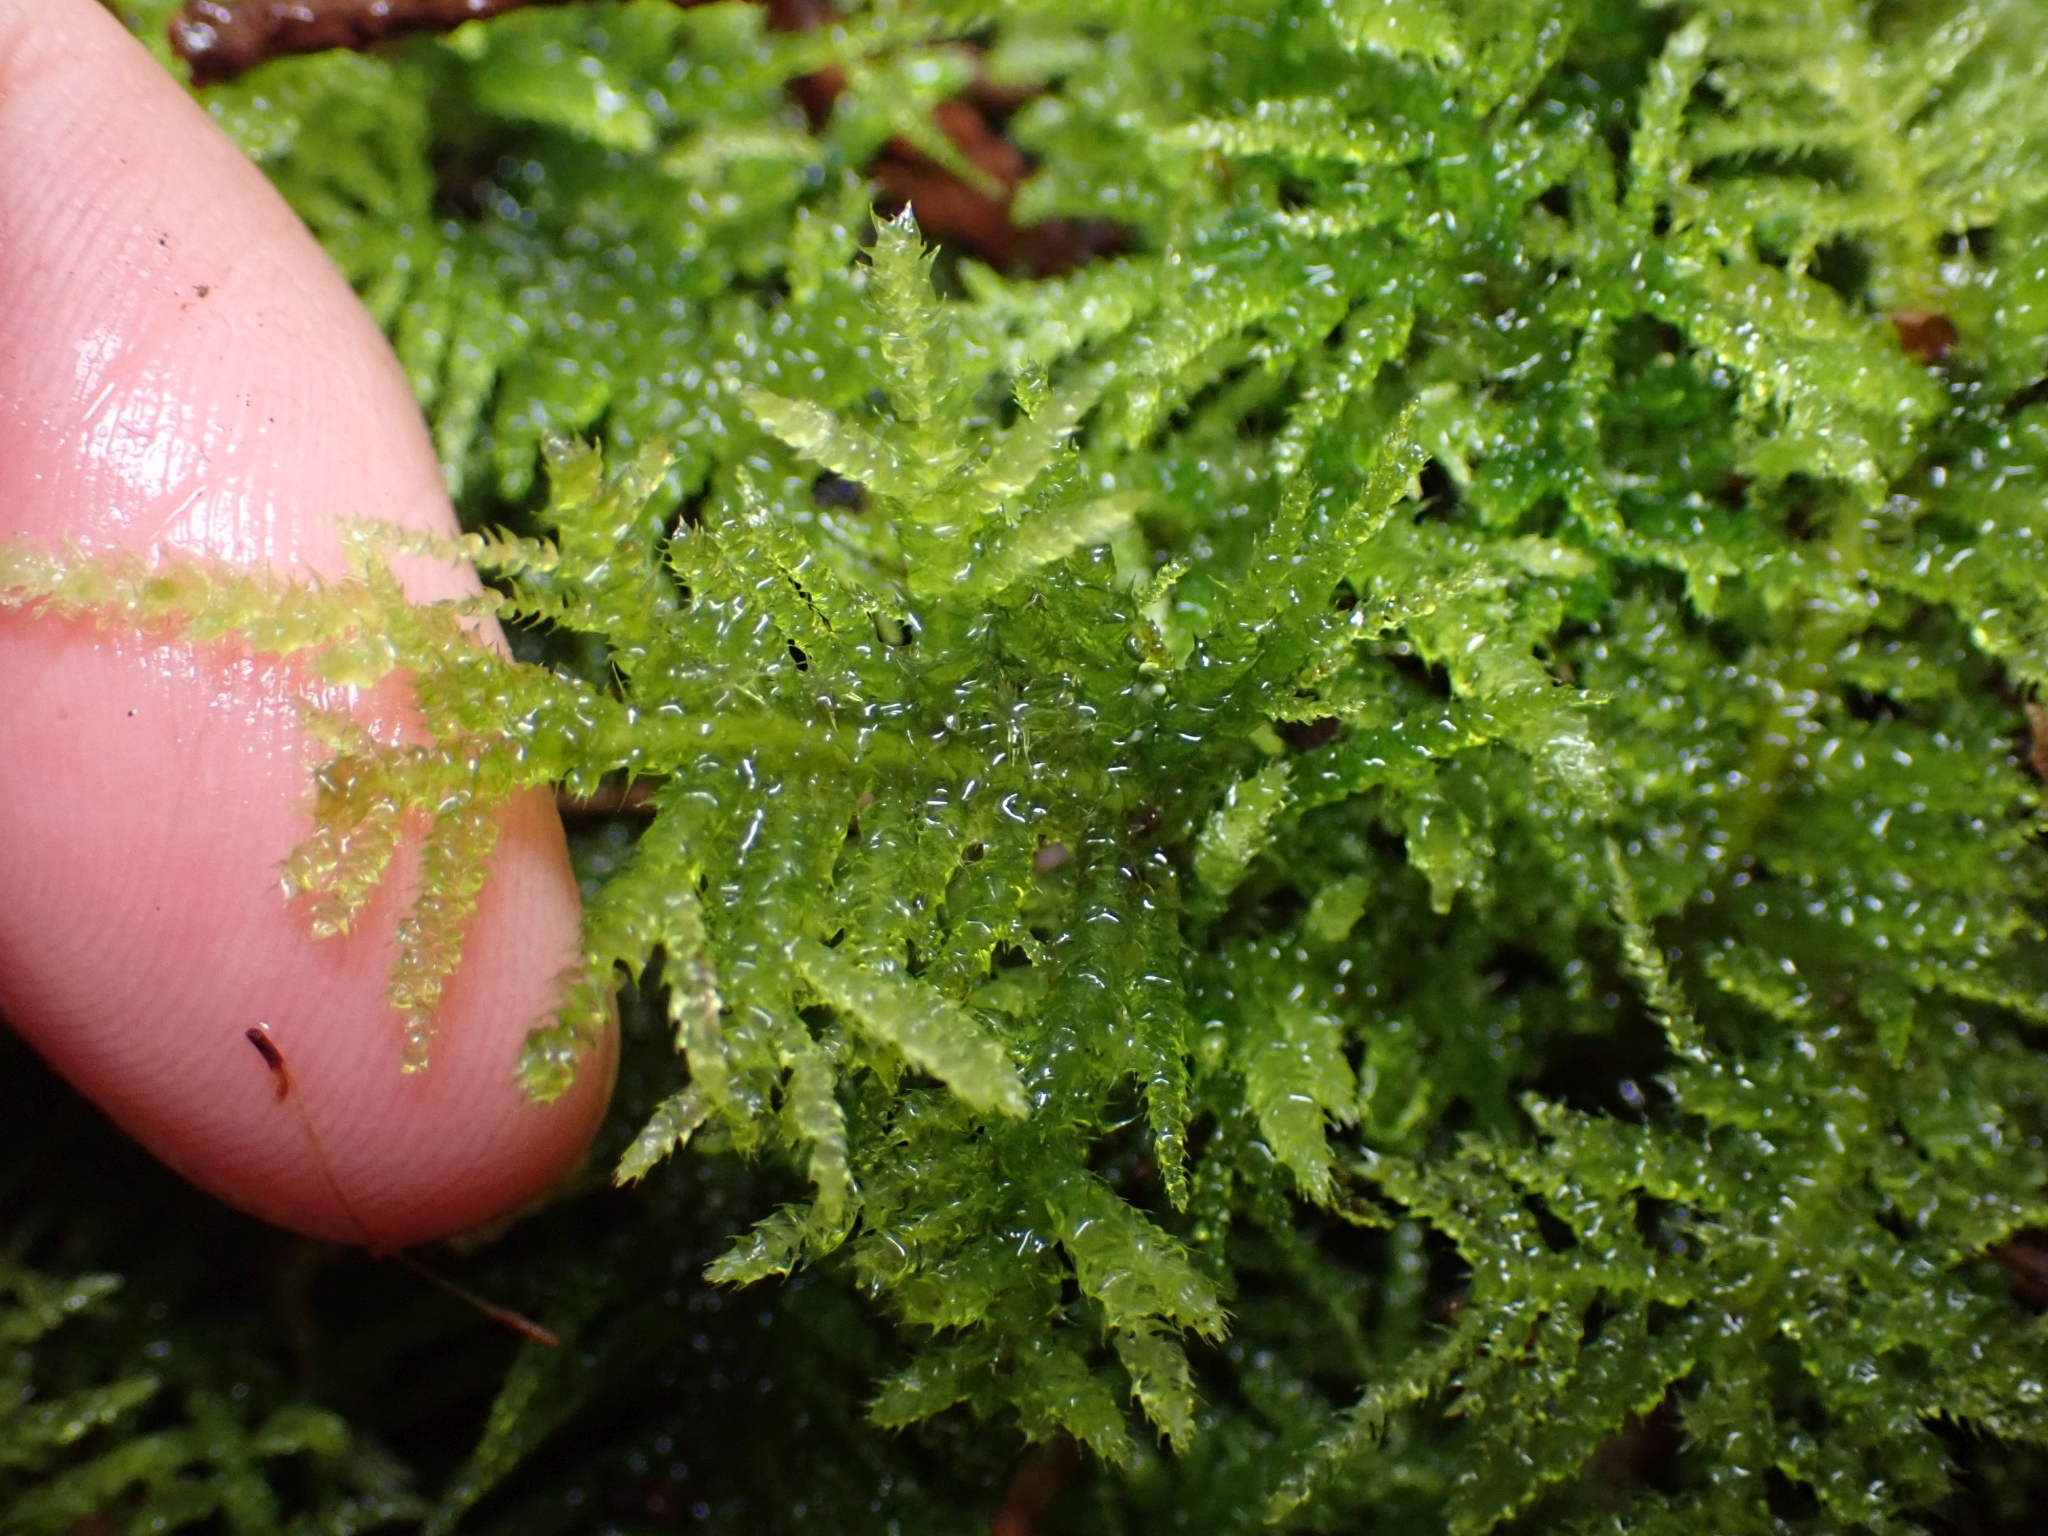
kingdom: Plantae
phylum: Bryophyta
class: Bryopsida
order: Hypnales
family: Brachytheciaceae
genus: Kindbergia
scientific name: Kindbergia oregana
